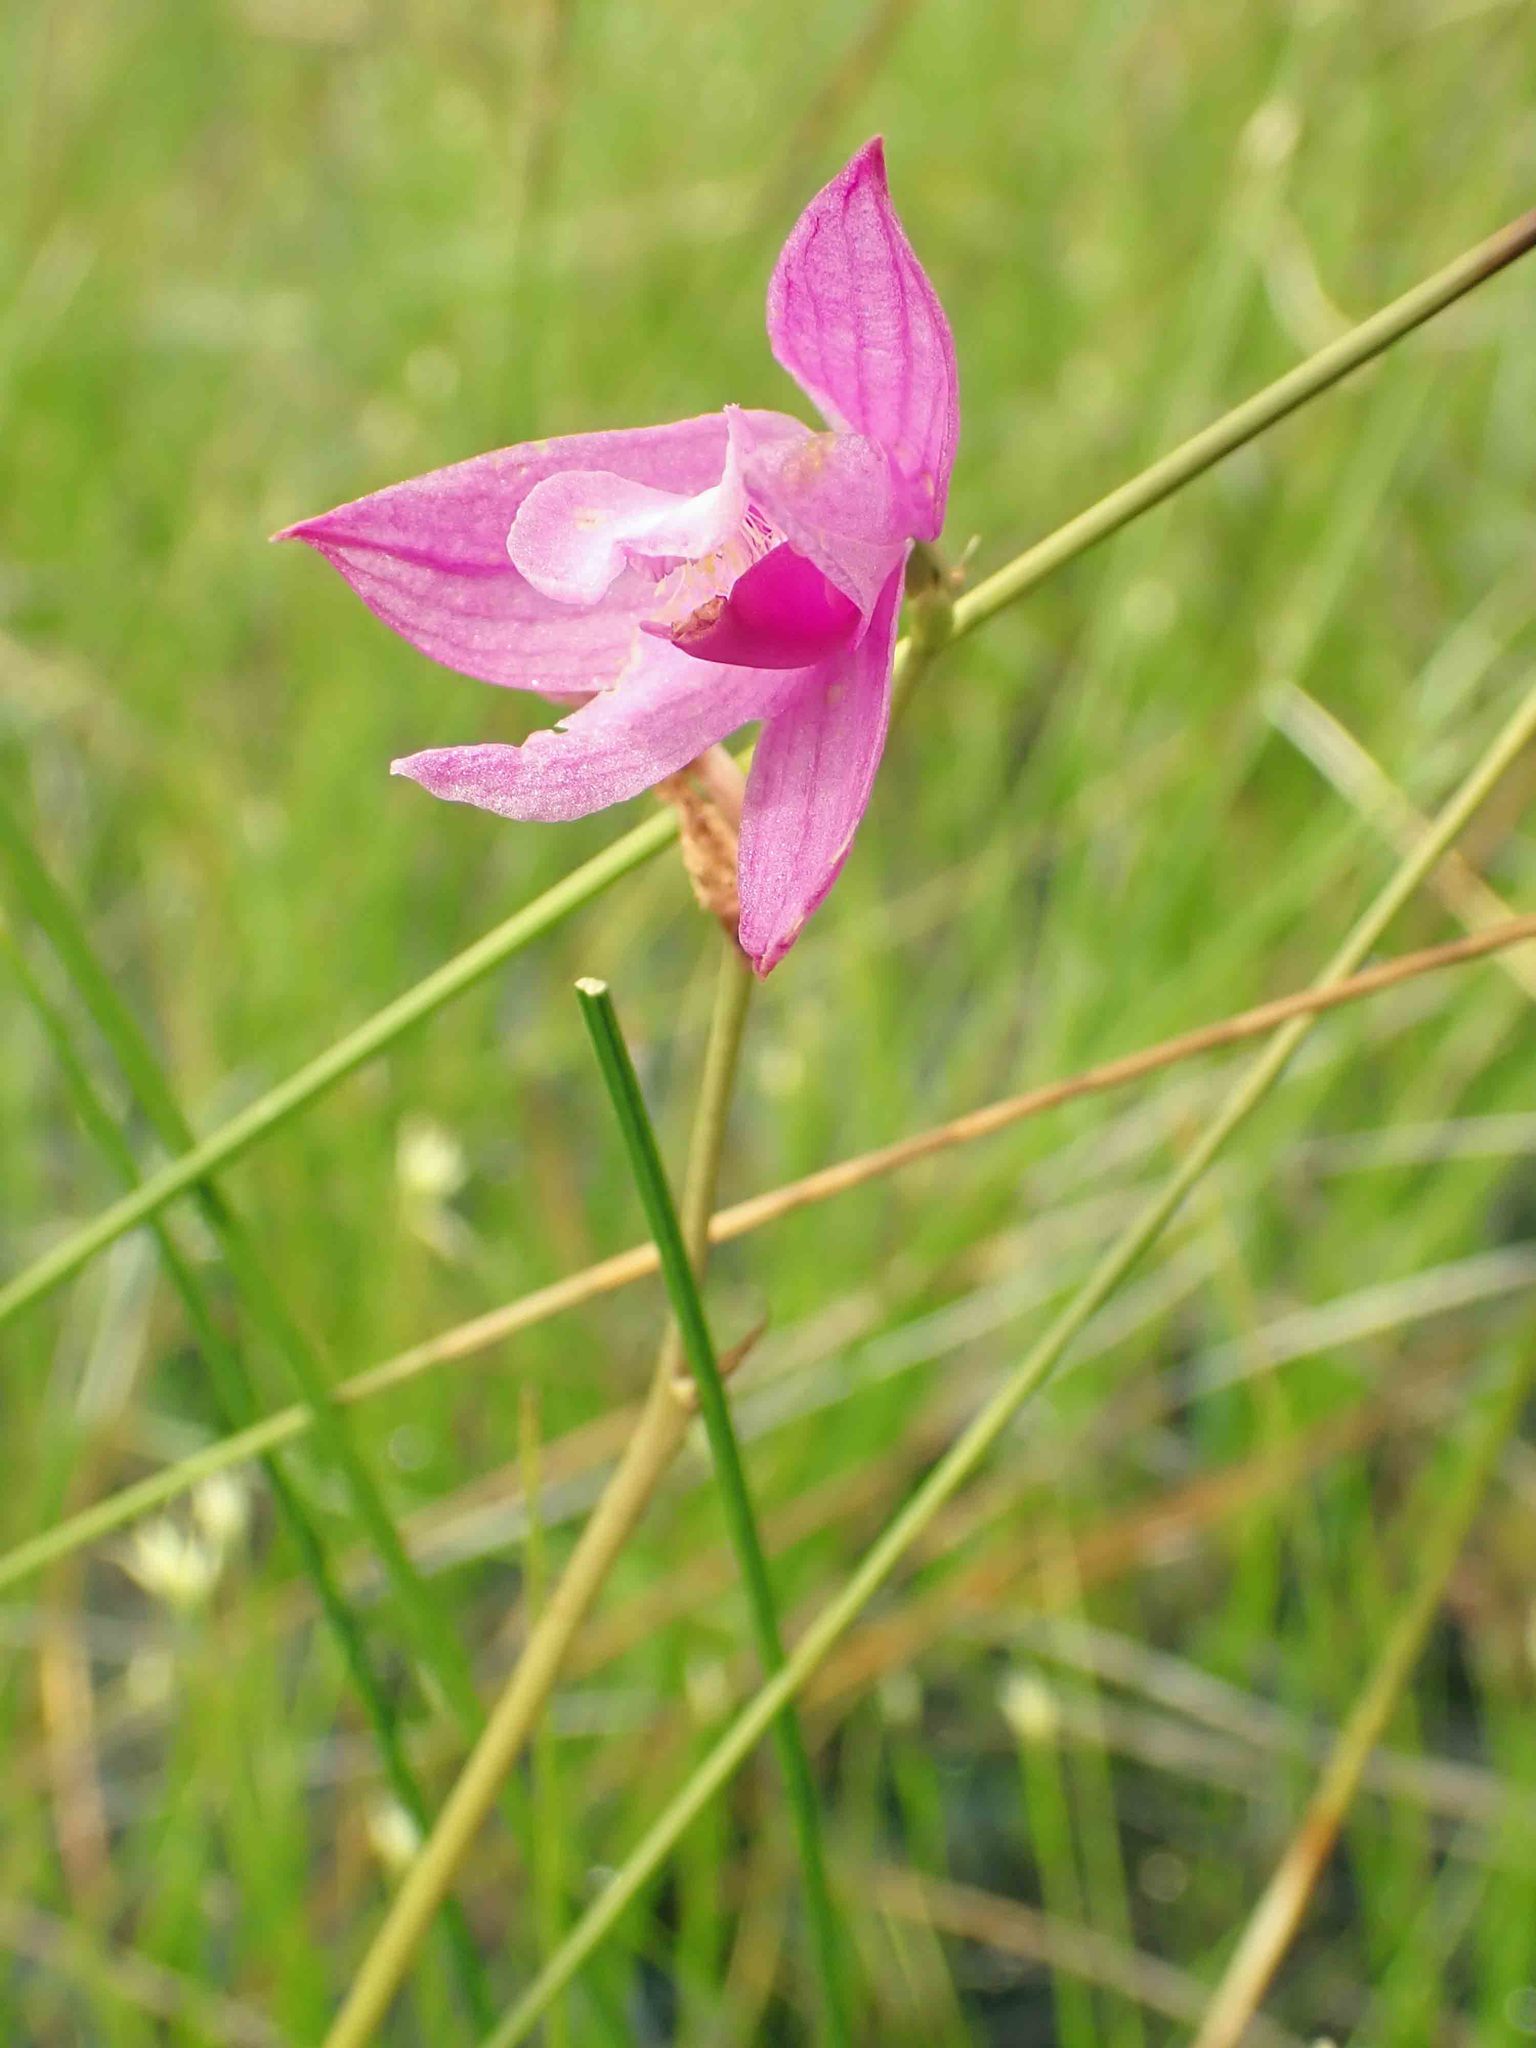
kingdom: Plantae
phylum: Tracheophyta
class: Liliopsida
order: Asparagales
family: Orchidaceae
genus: Calopogon
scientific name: Calopogon tuberosus
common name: Grass-pink
